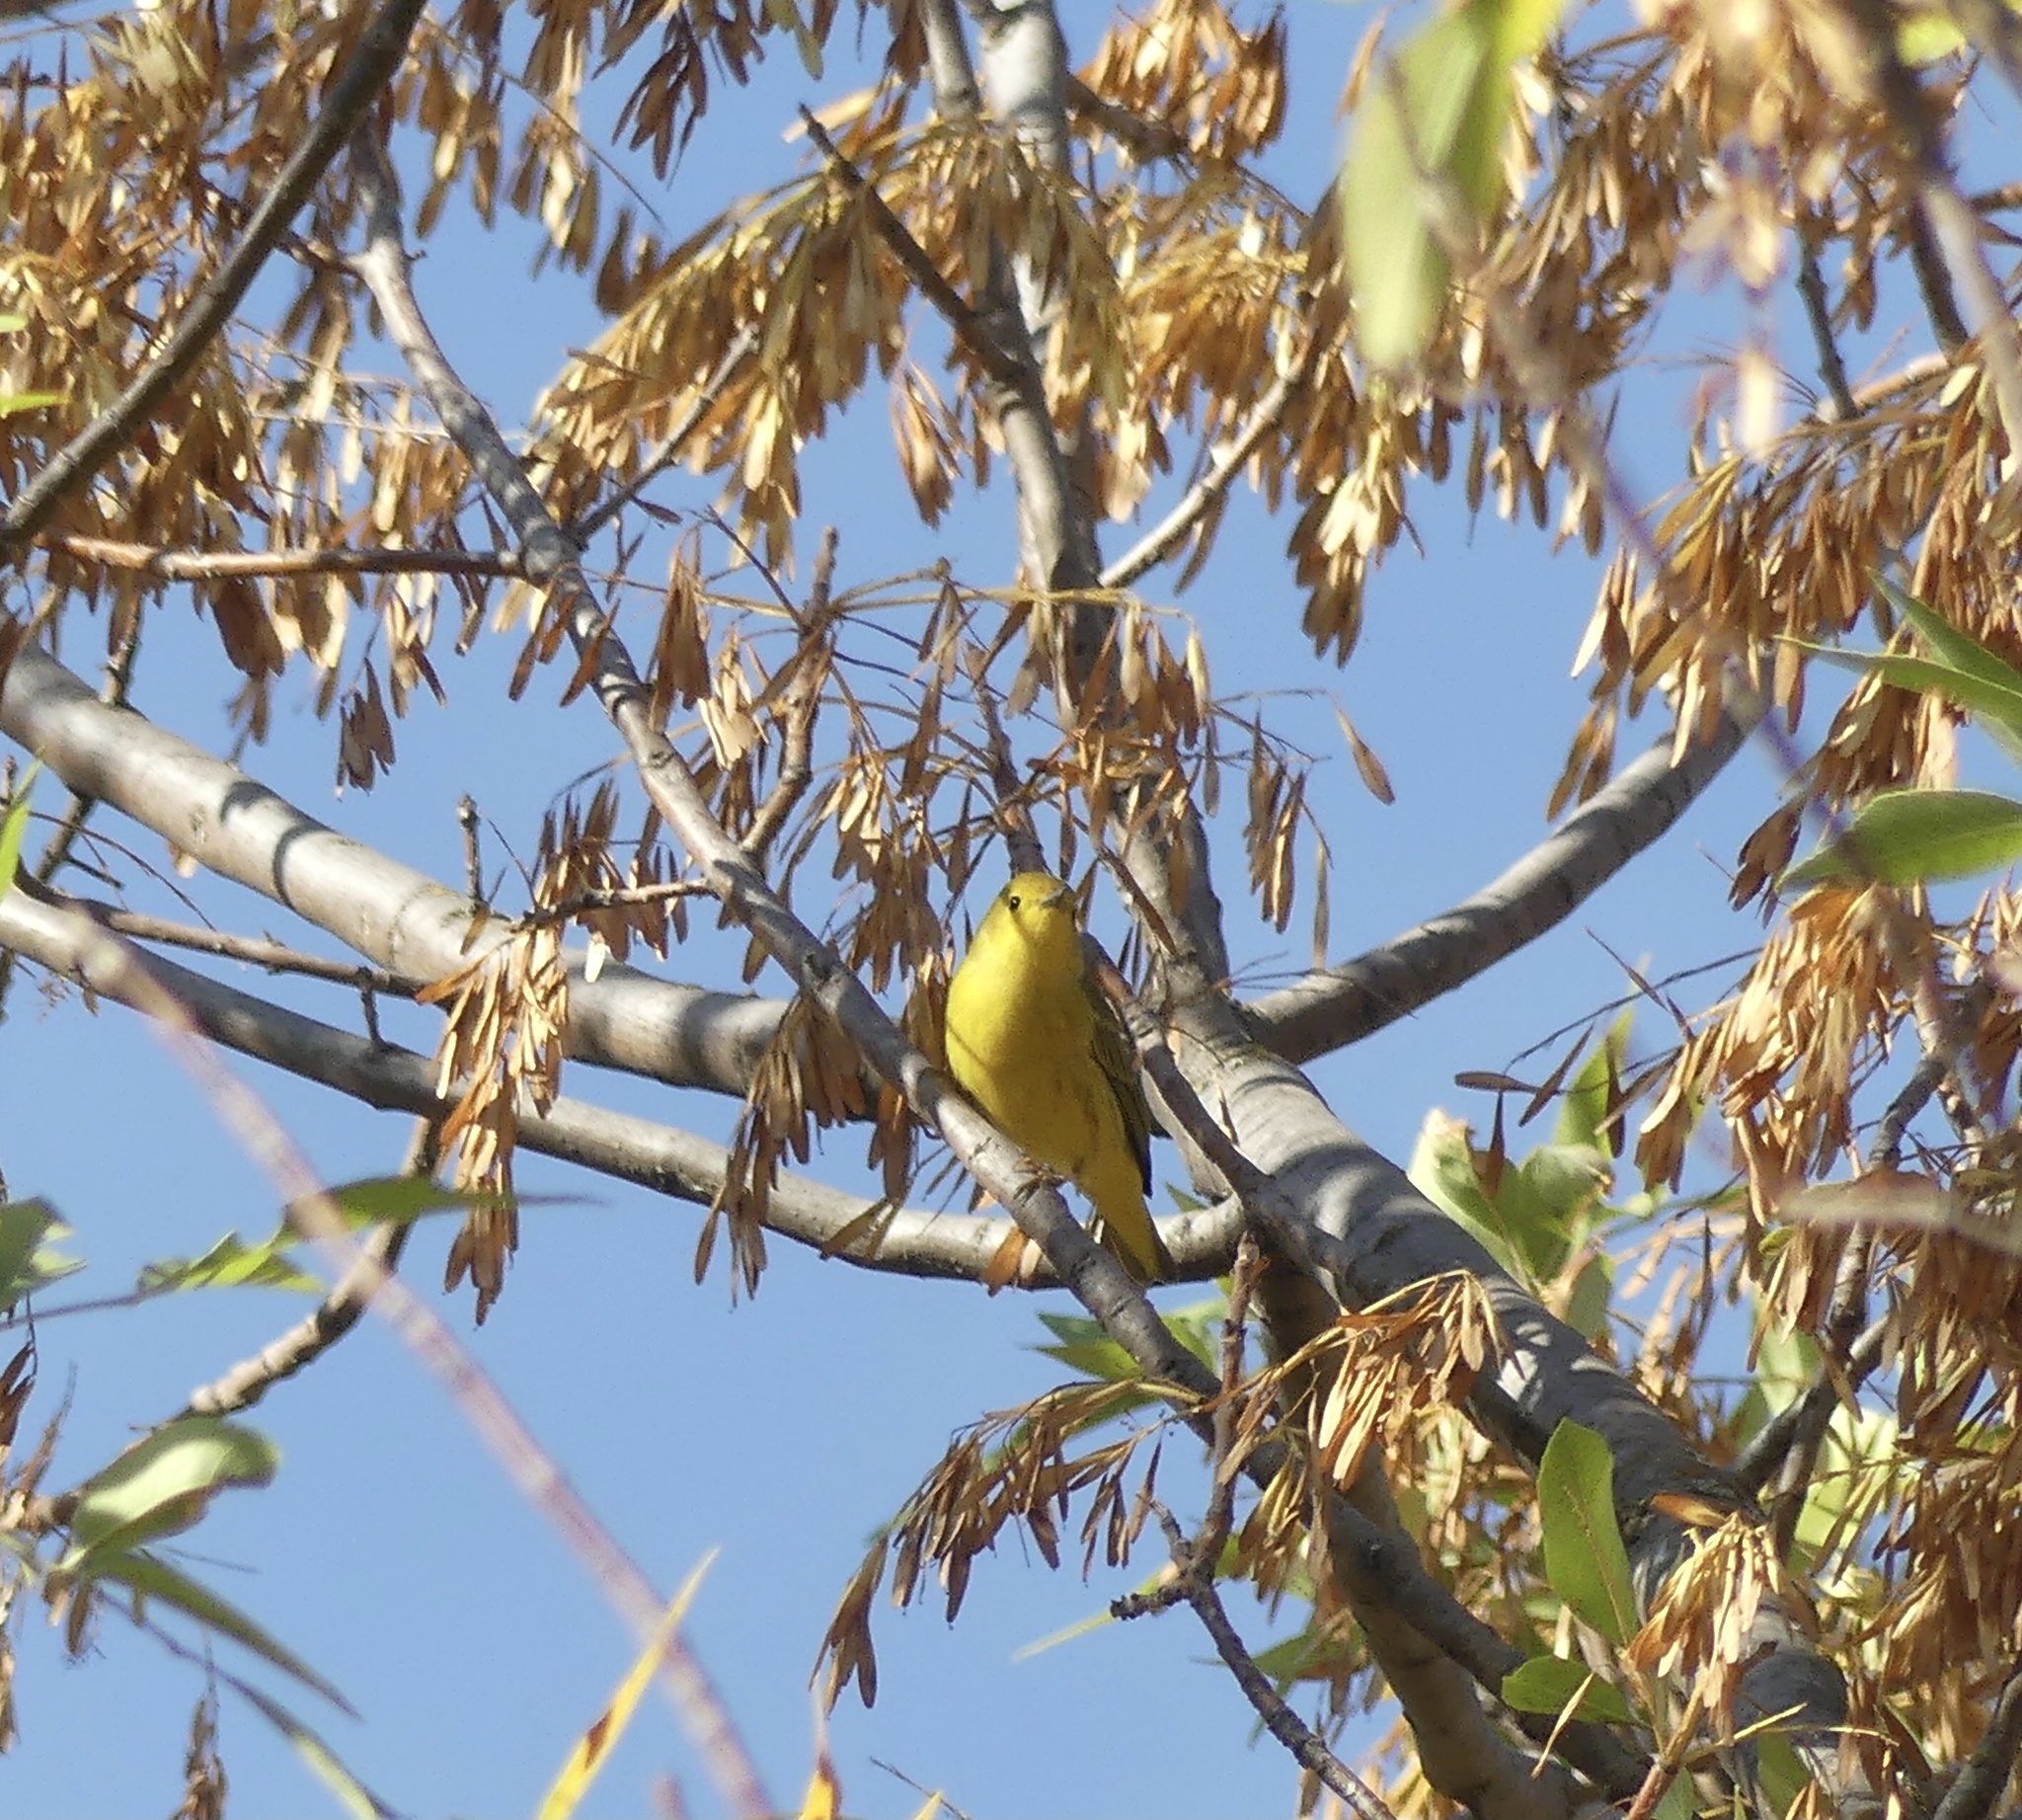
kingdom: Animalia
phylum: Chordata
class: Aves
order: Passeriformes
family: Parulidae
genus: Setophaga
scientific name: Setophaga petechia
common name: Yellow warbler
